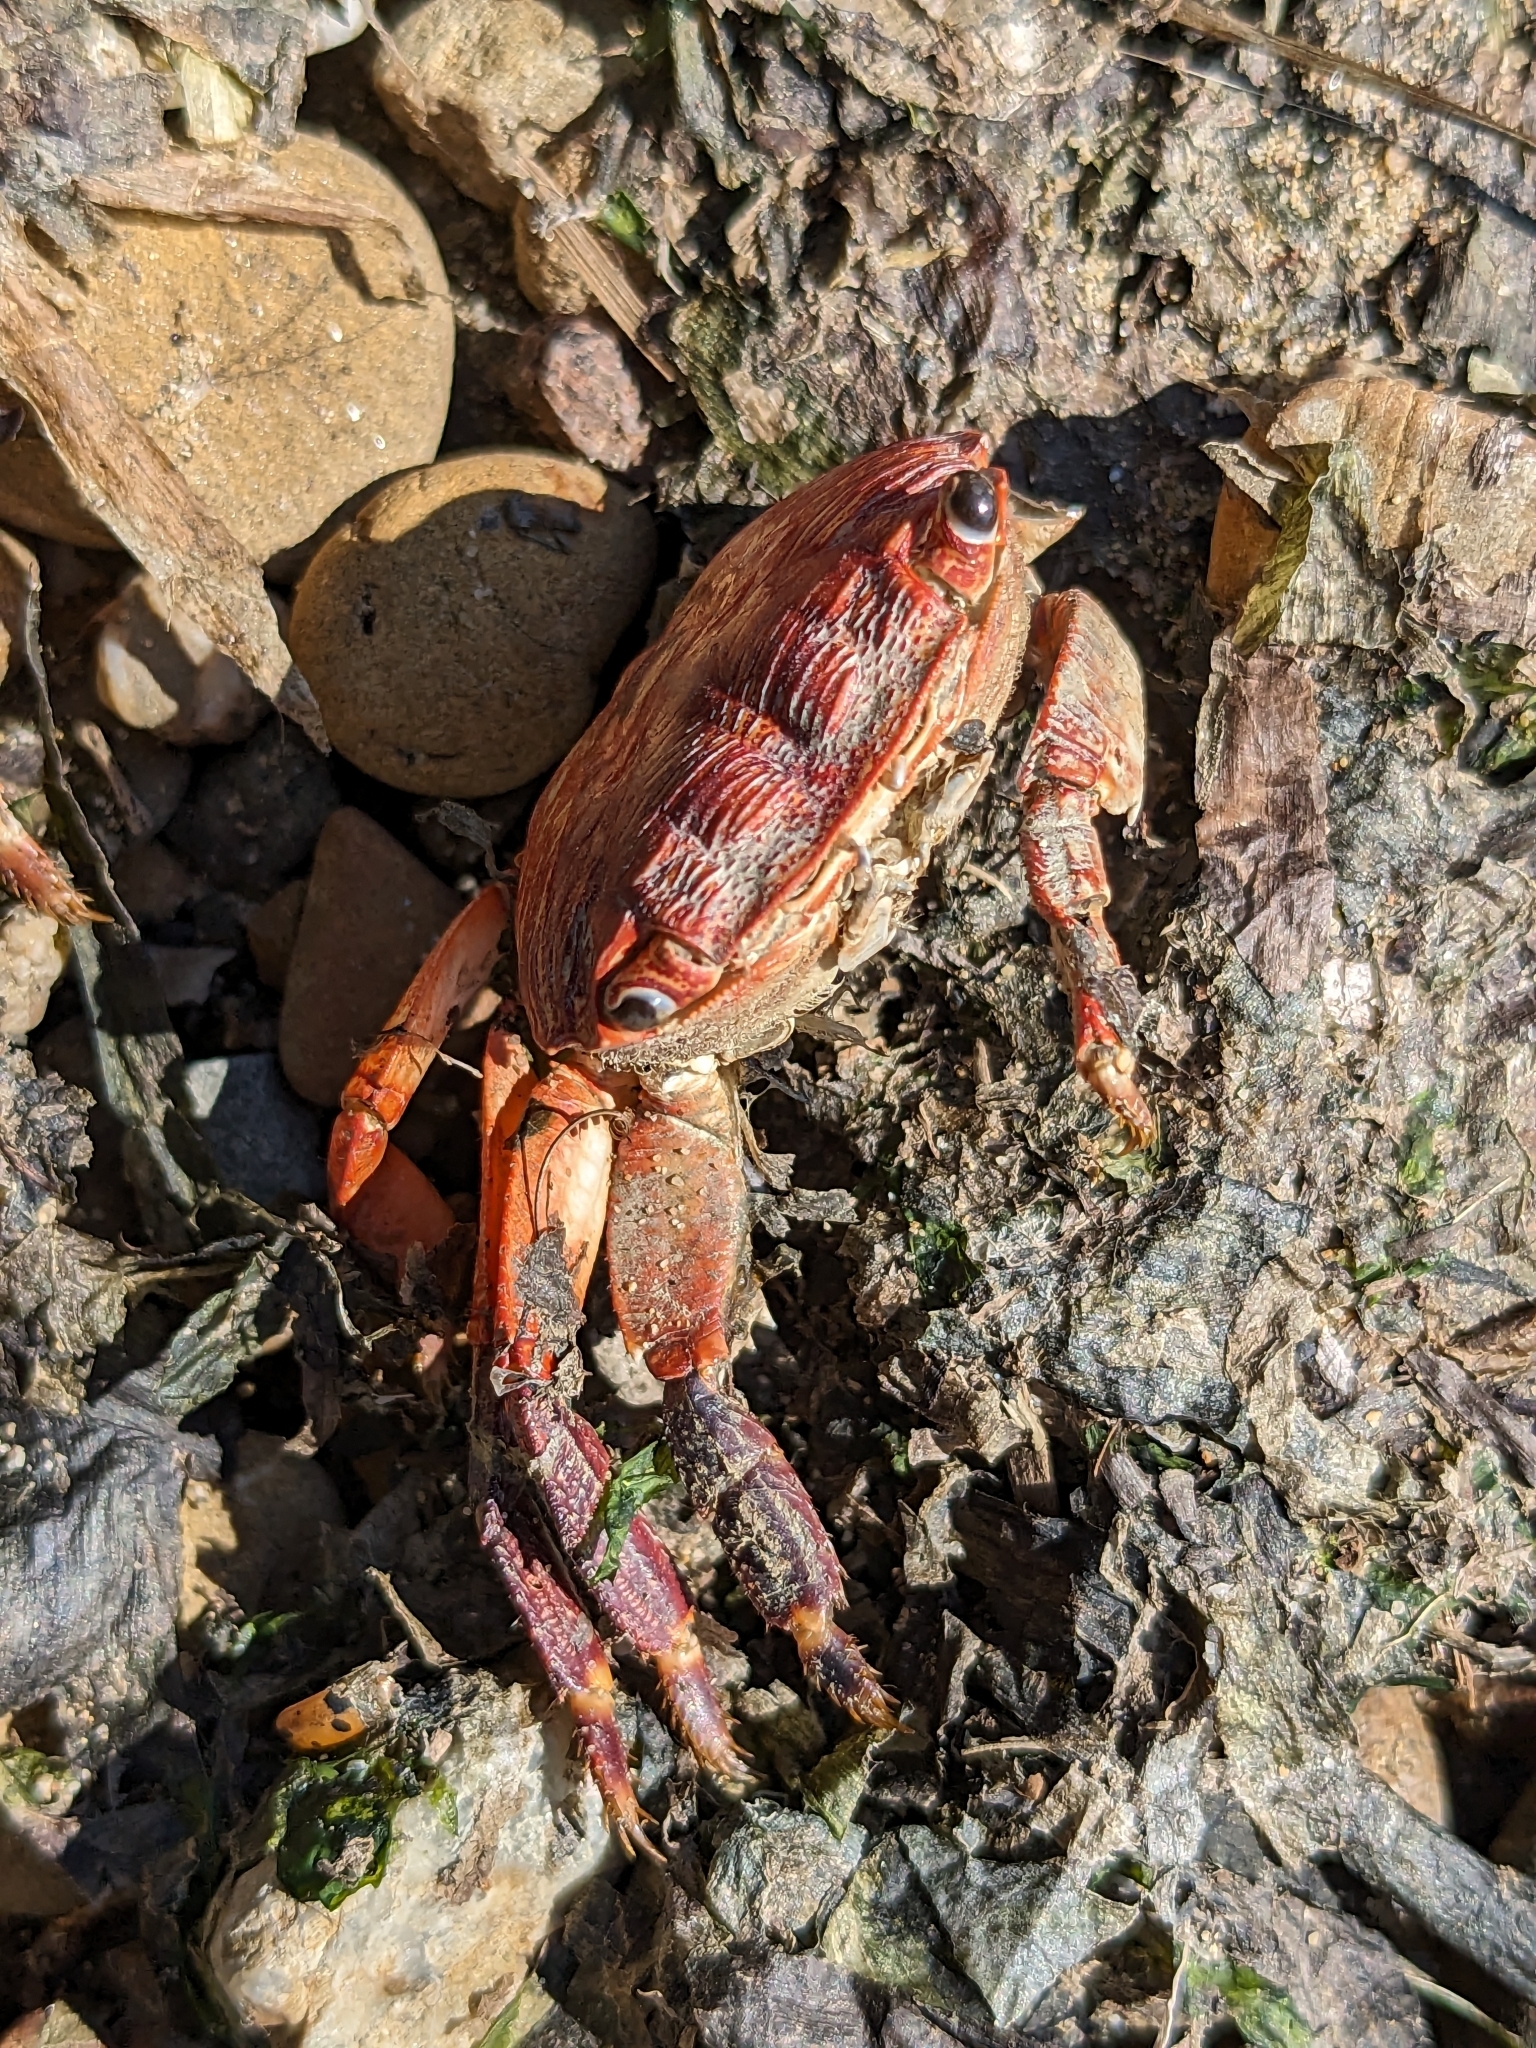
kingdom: Animalia
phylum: Arthropoda
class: Malacostraca
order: Decapoda
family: Grapsidae
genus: Pachygrapsus
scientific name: Pachygrapsus crassipes
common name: Striped shore crab
